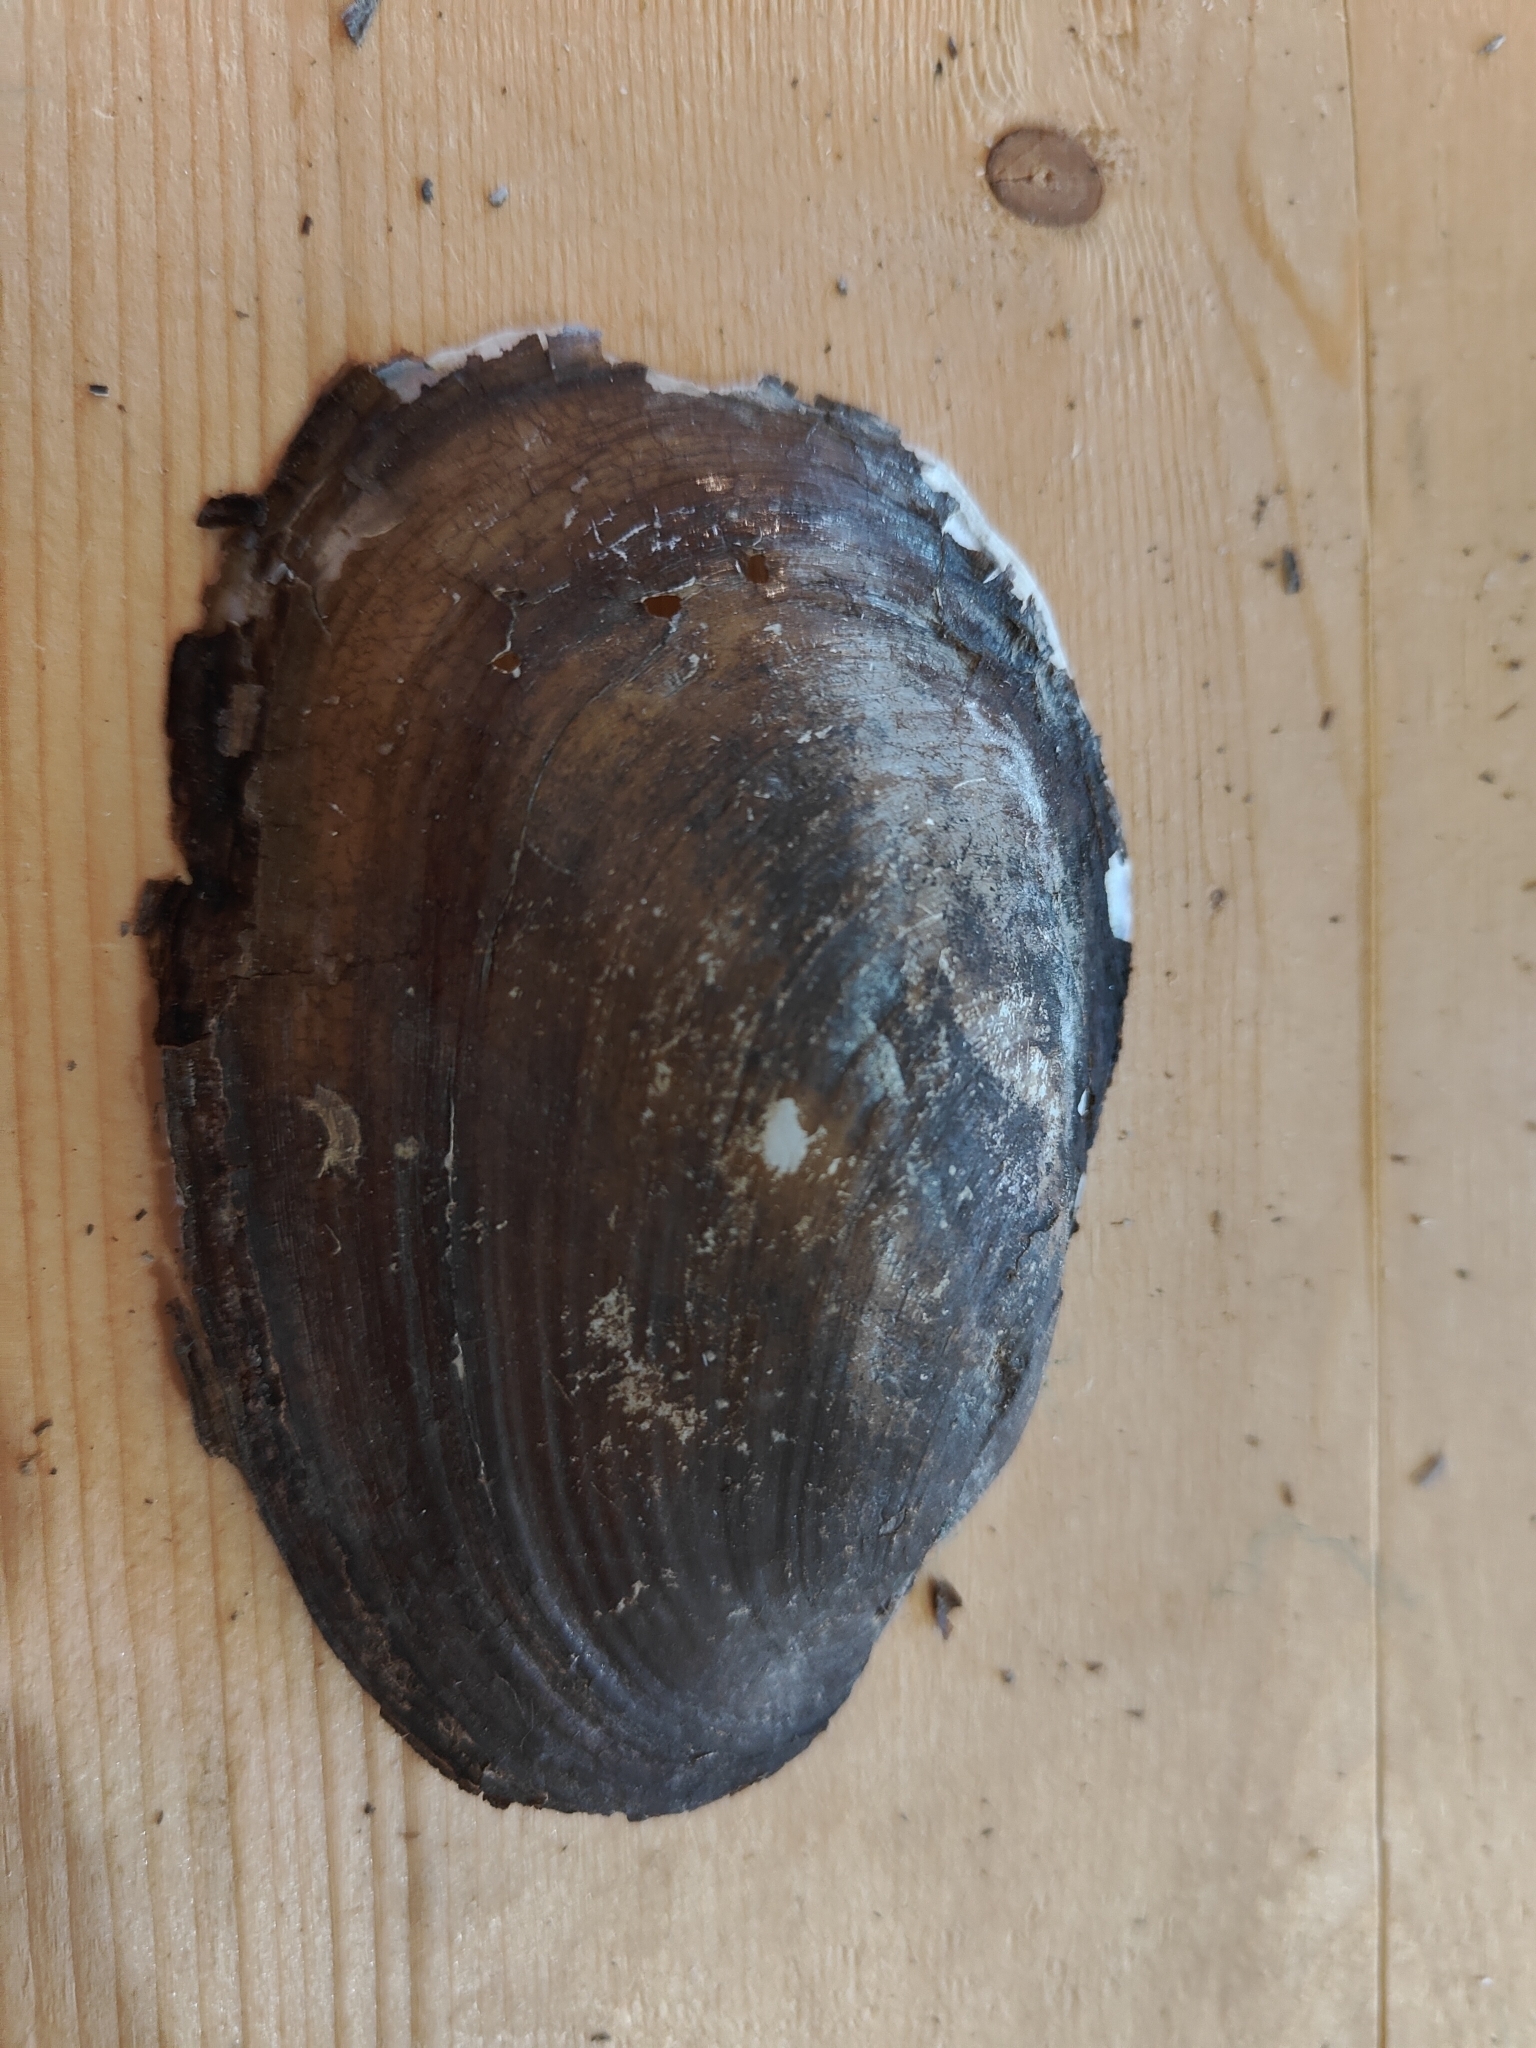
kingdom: Animalia
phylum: Mollusca
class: Bivalvia
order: Unionida
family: Unionidae
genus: Potamilus
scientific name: Potamilus fragilis
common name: Fragile papershell
